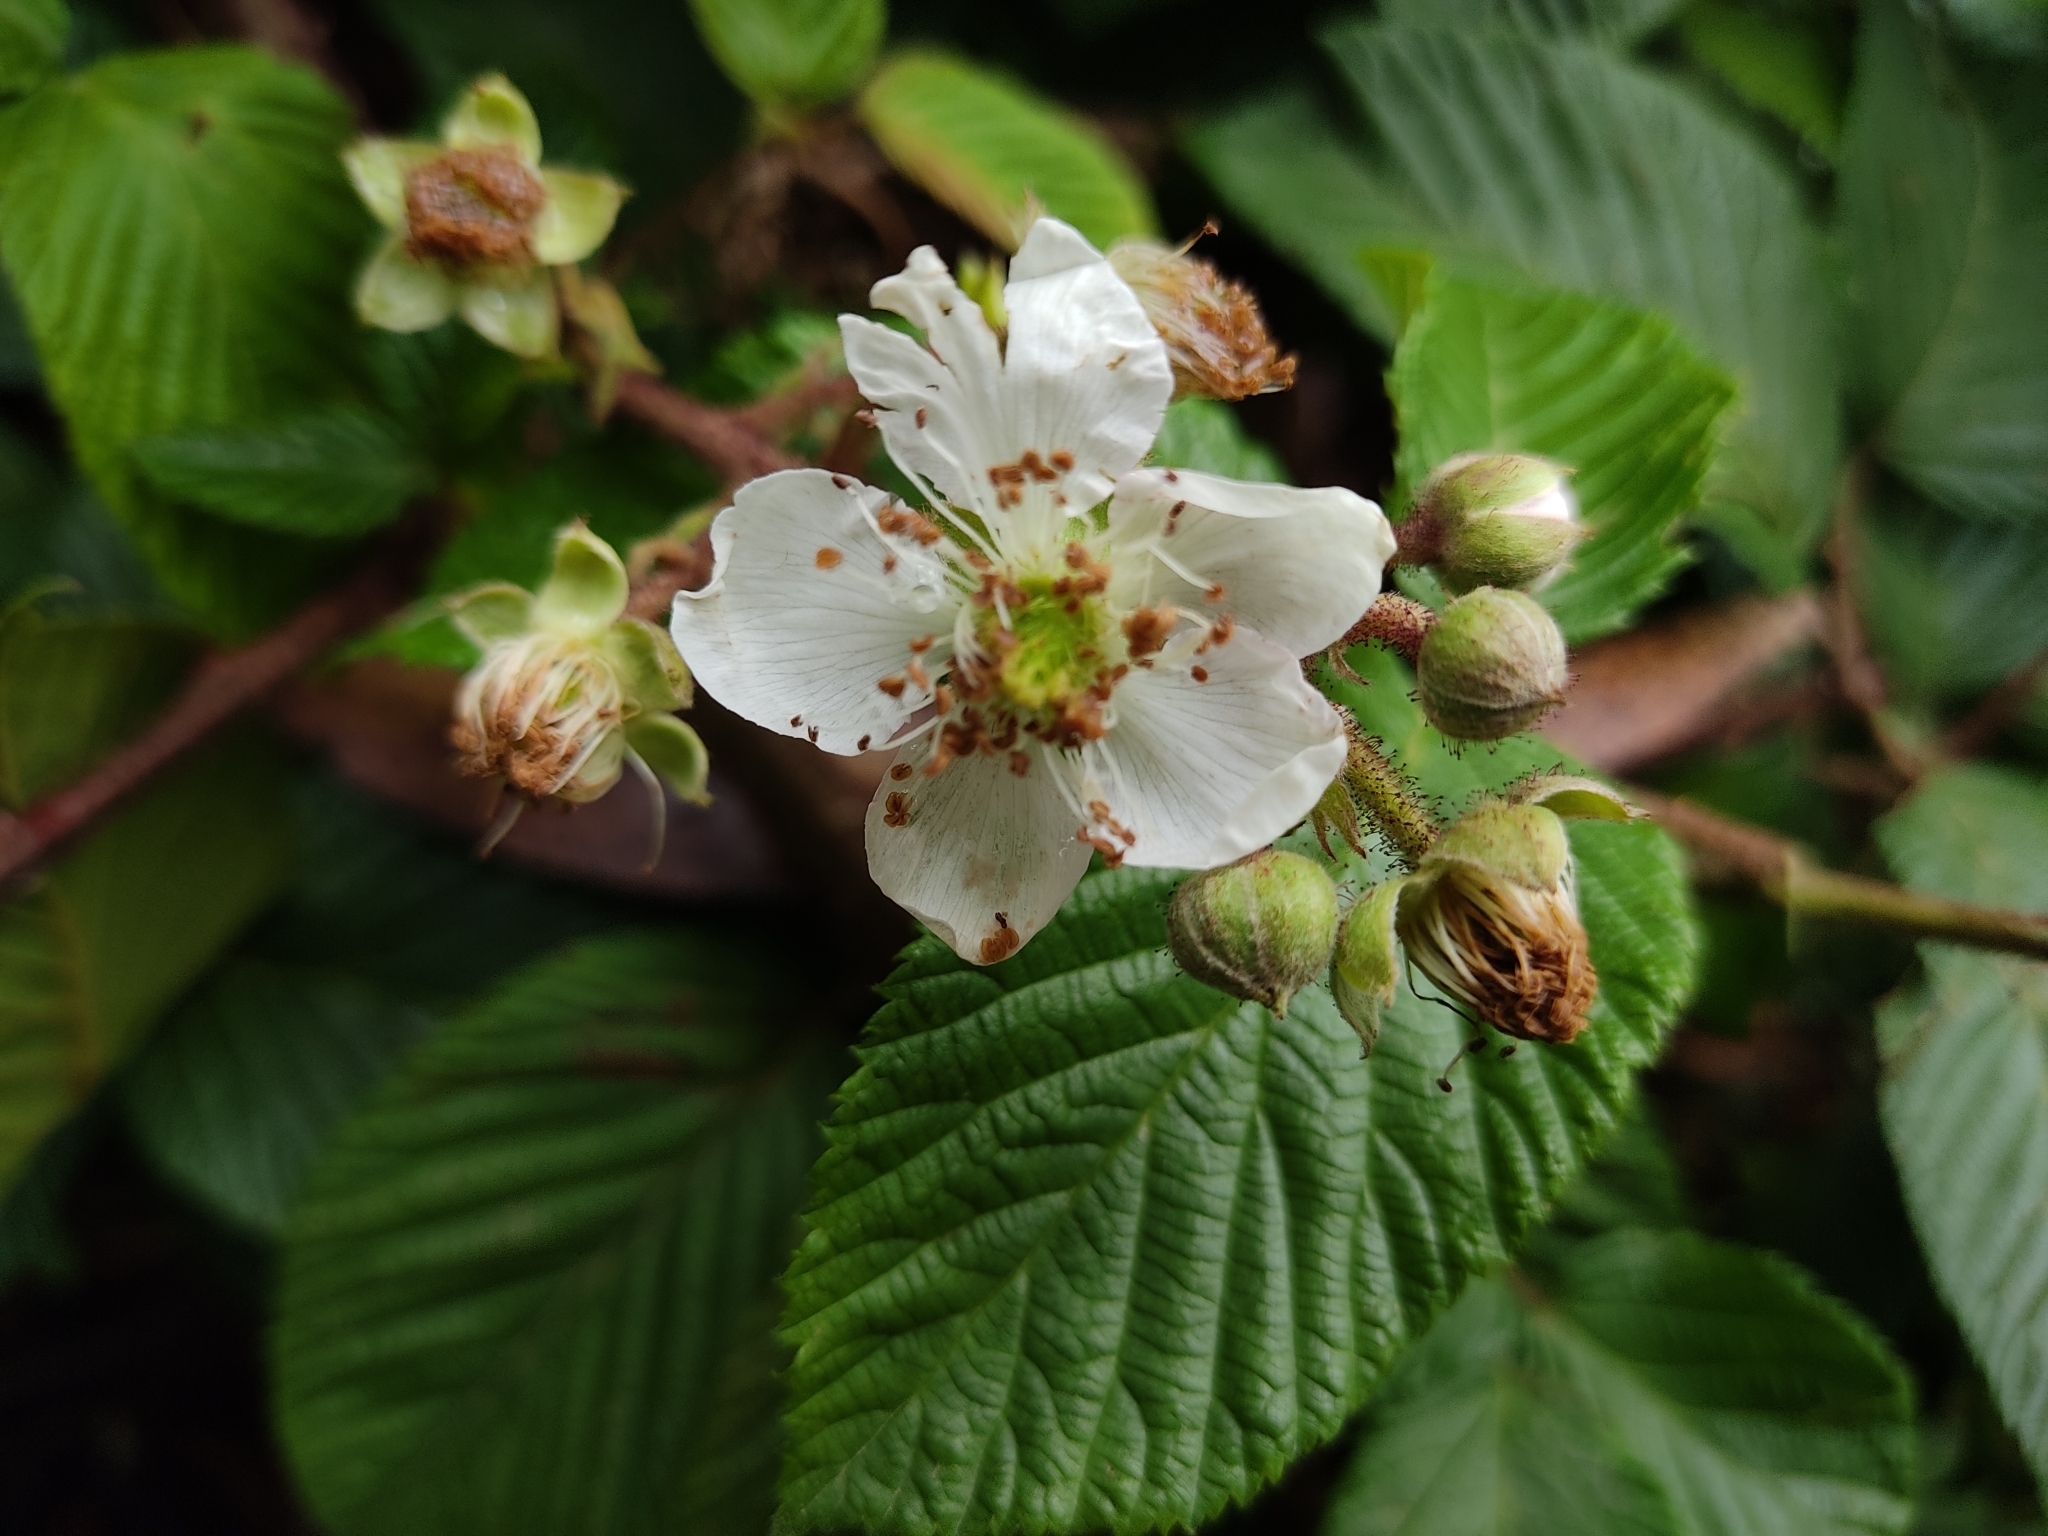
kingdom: Plantae
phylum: Tracheophyta
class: Magnoliopsida
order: Rosales
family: Rosaceae
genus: Rubus
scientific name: Rubus adenotrichos
